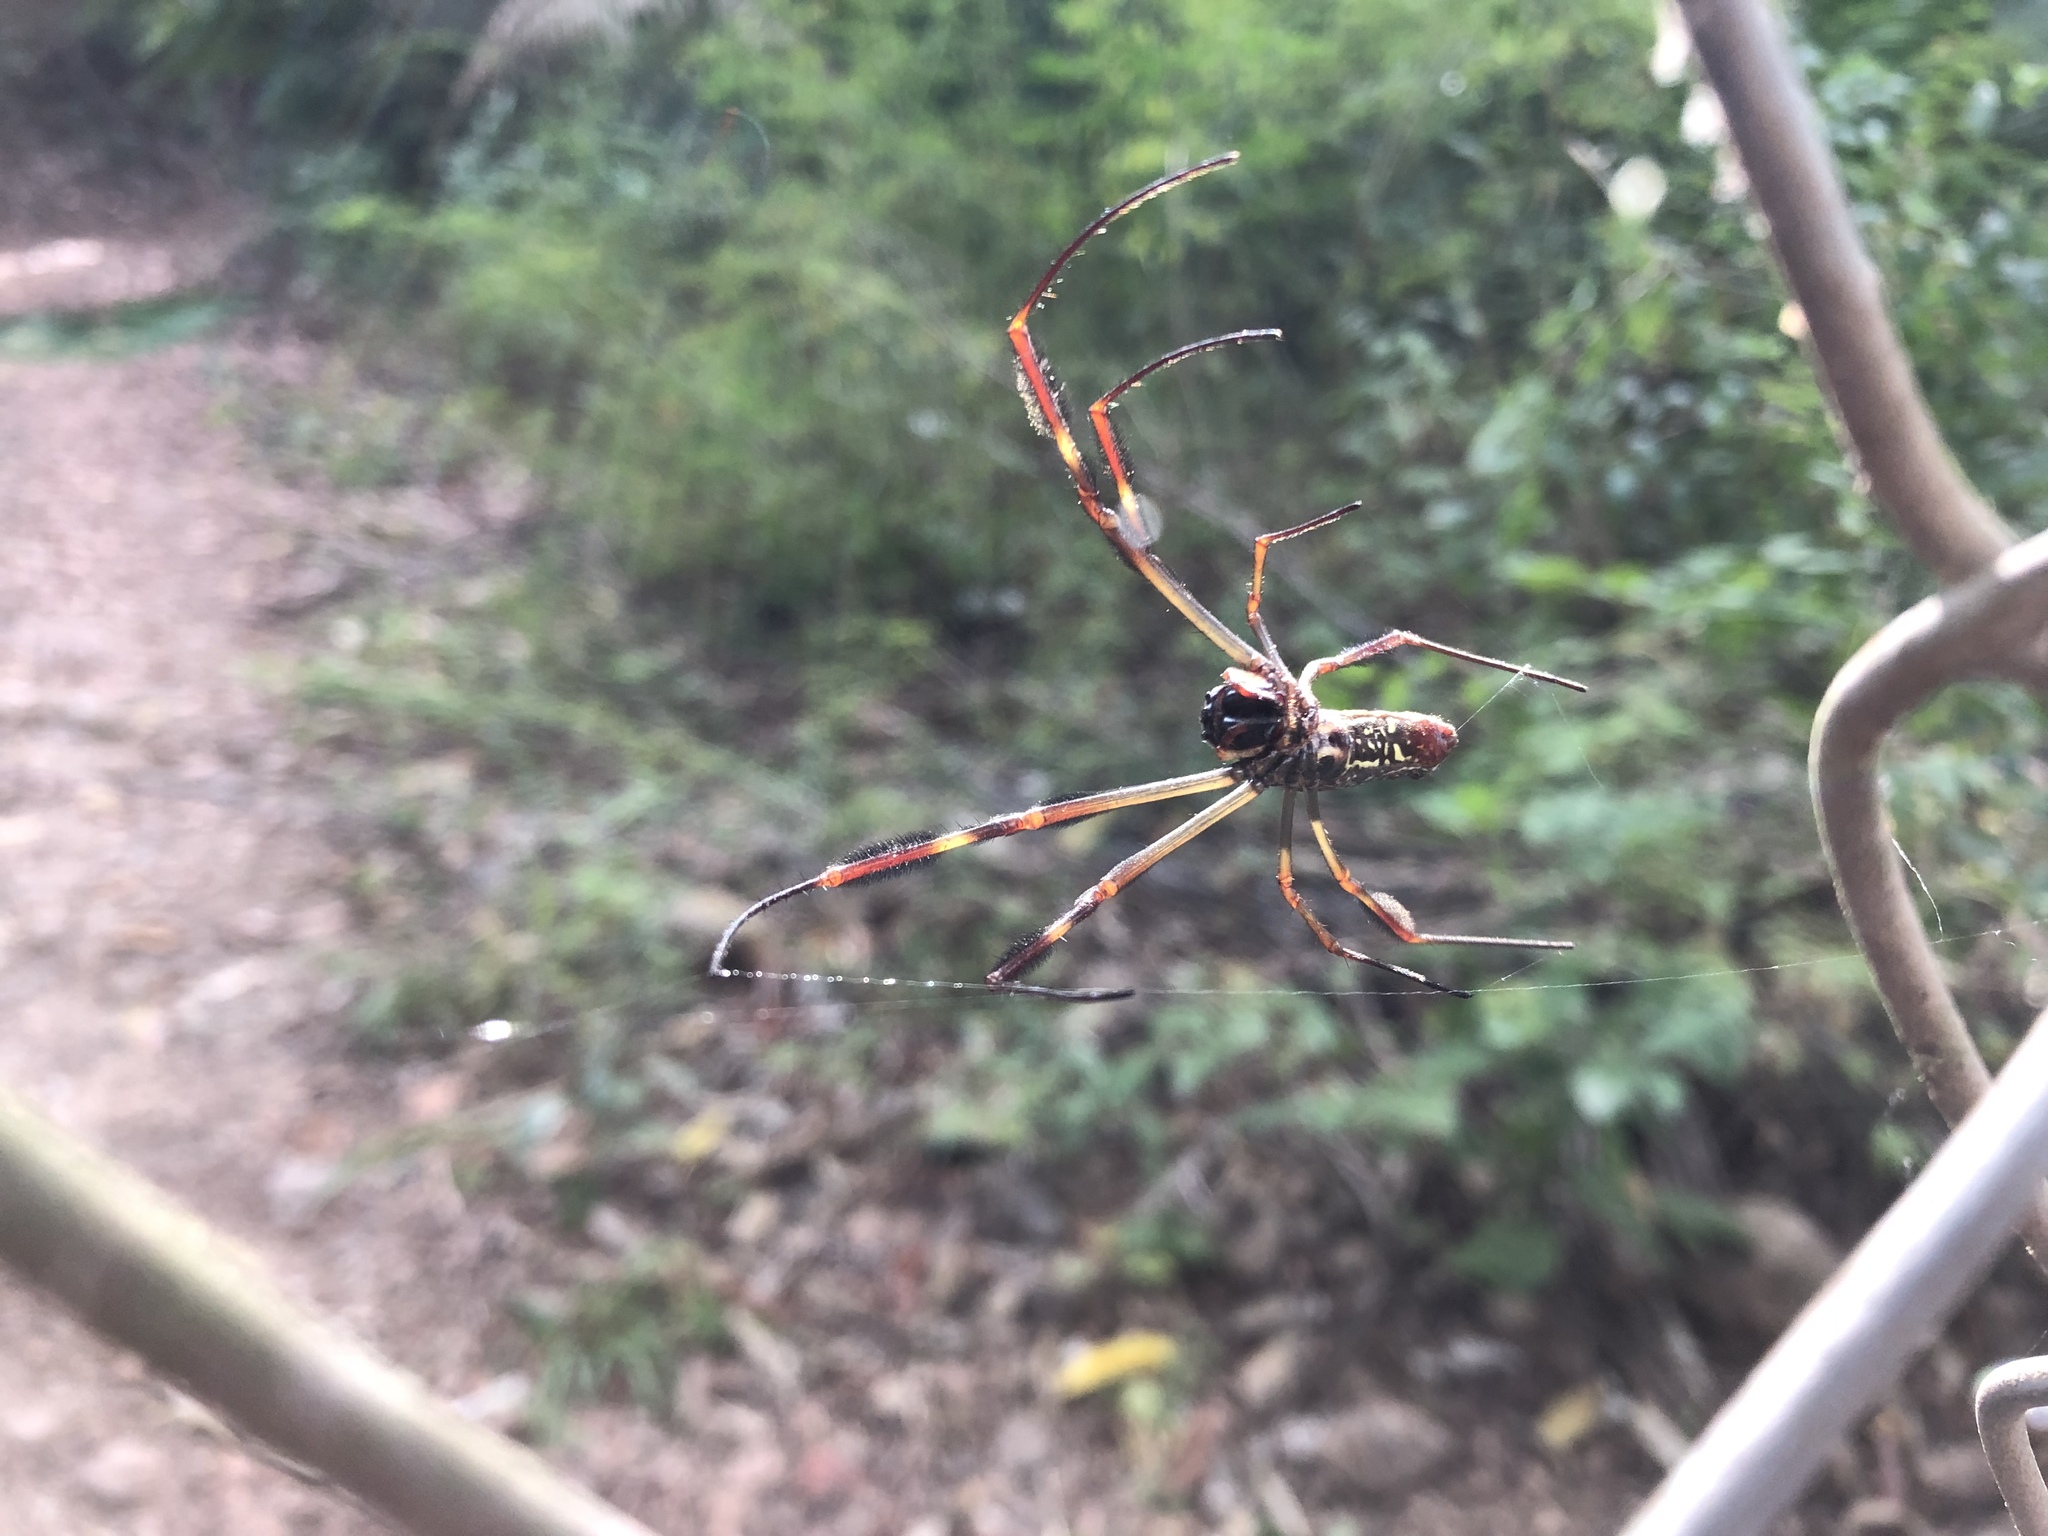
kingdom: Animalia
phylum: Arthropoda
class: Arachnida
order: Araneae
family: Araneidae
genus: Trichonephila
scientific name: Trichonephila clavipes
